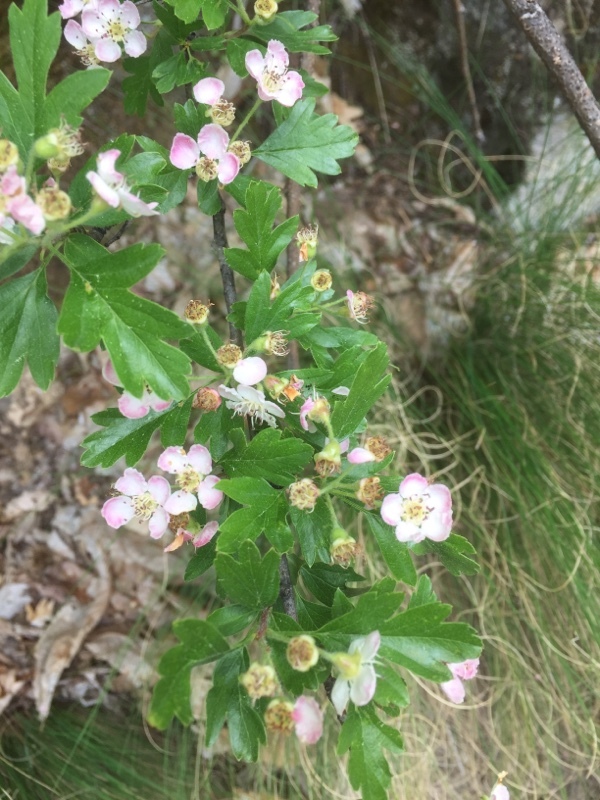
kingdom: Plantae
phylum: Tracheophyta
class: Magnoliopsida
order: Rosales
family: Rosaceae
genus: Crataegus
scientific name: Crataegus monogyna
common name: Hawthorn
